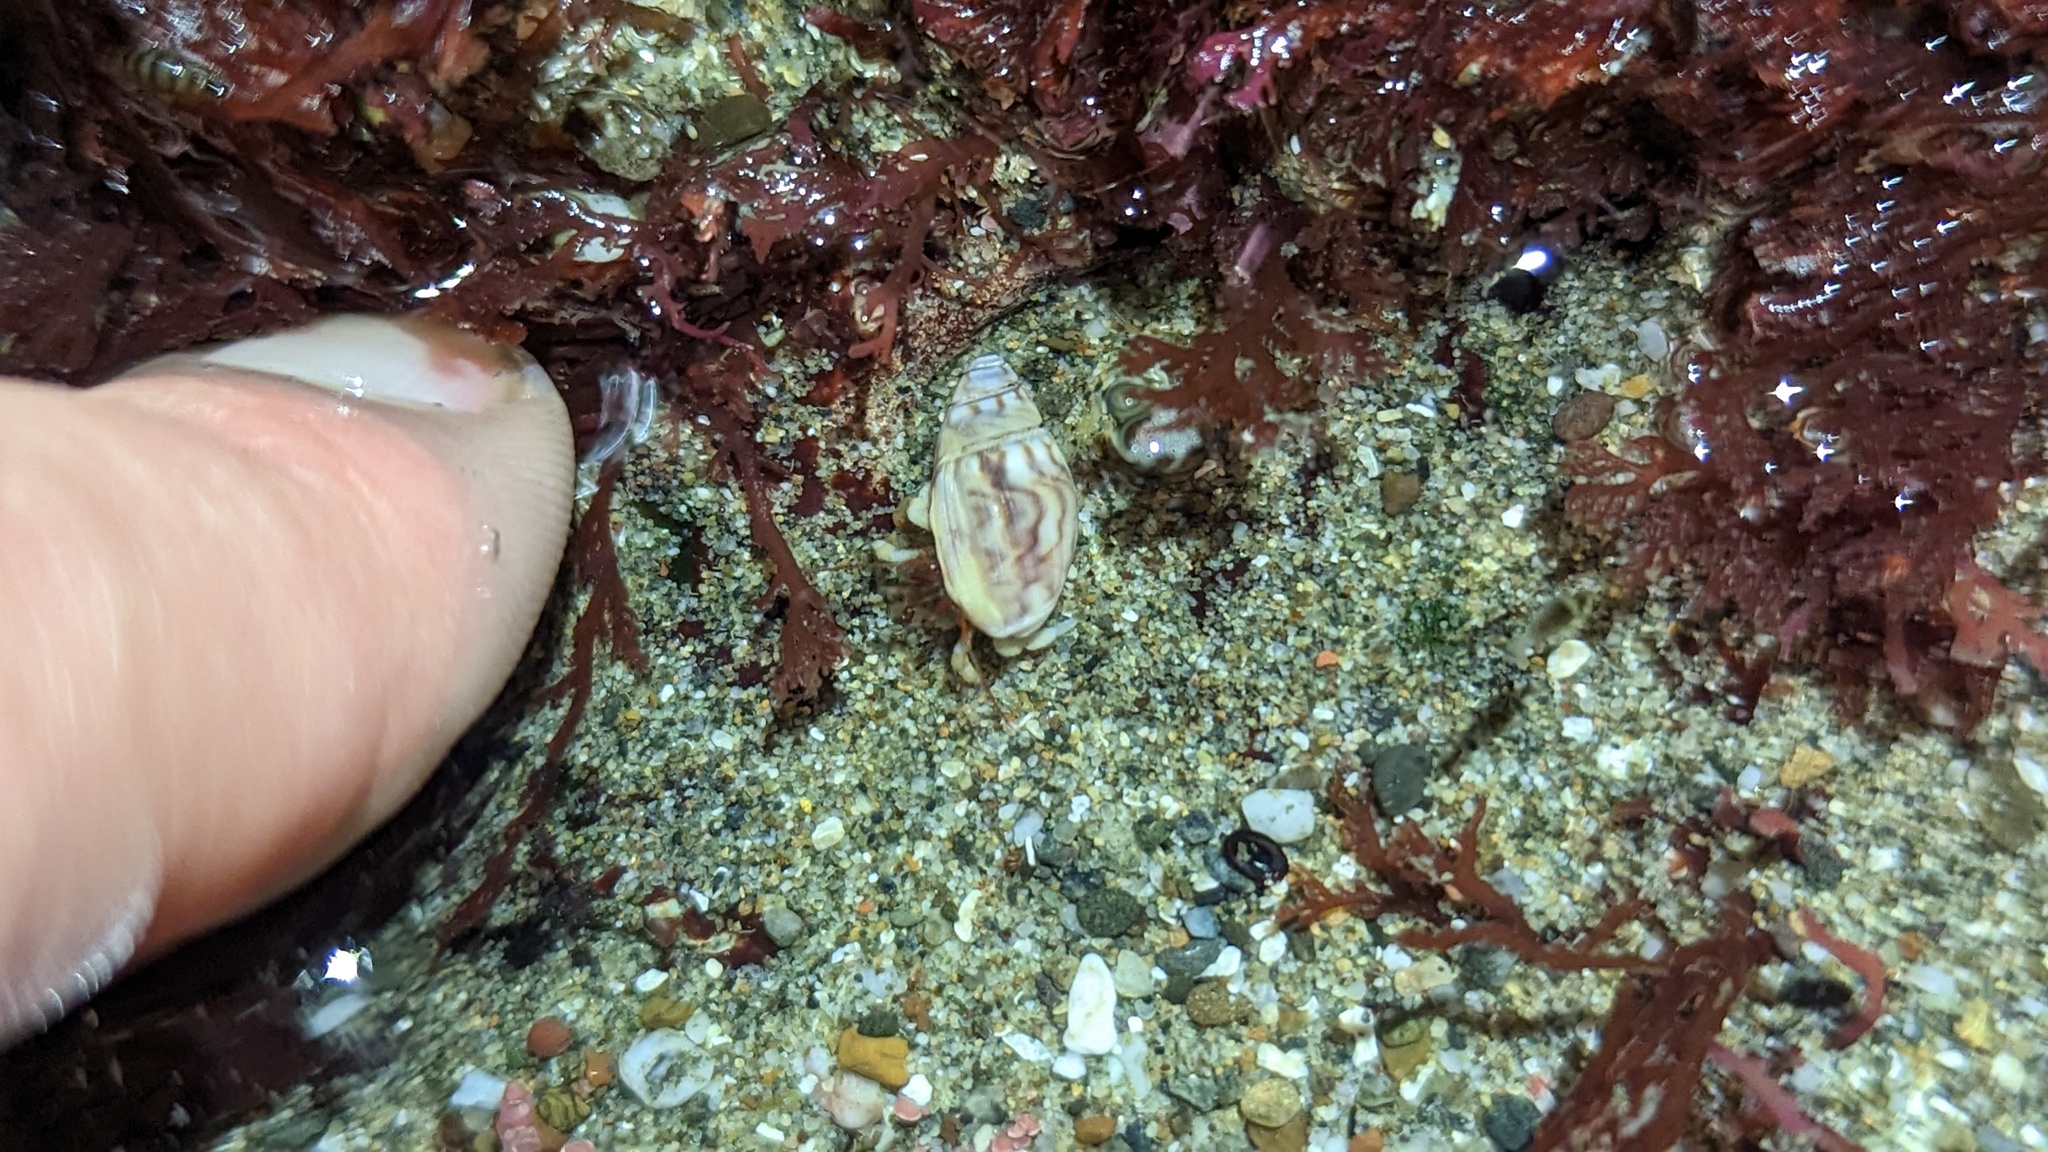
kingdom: Animalia
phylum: Mollusca
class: Gastropoda
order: Neogastropoda
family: Olividae
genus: Callianax
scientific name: Callianax strigata
